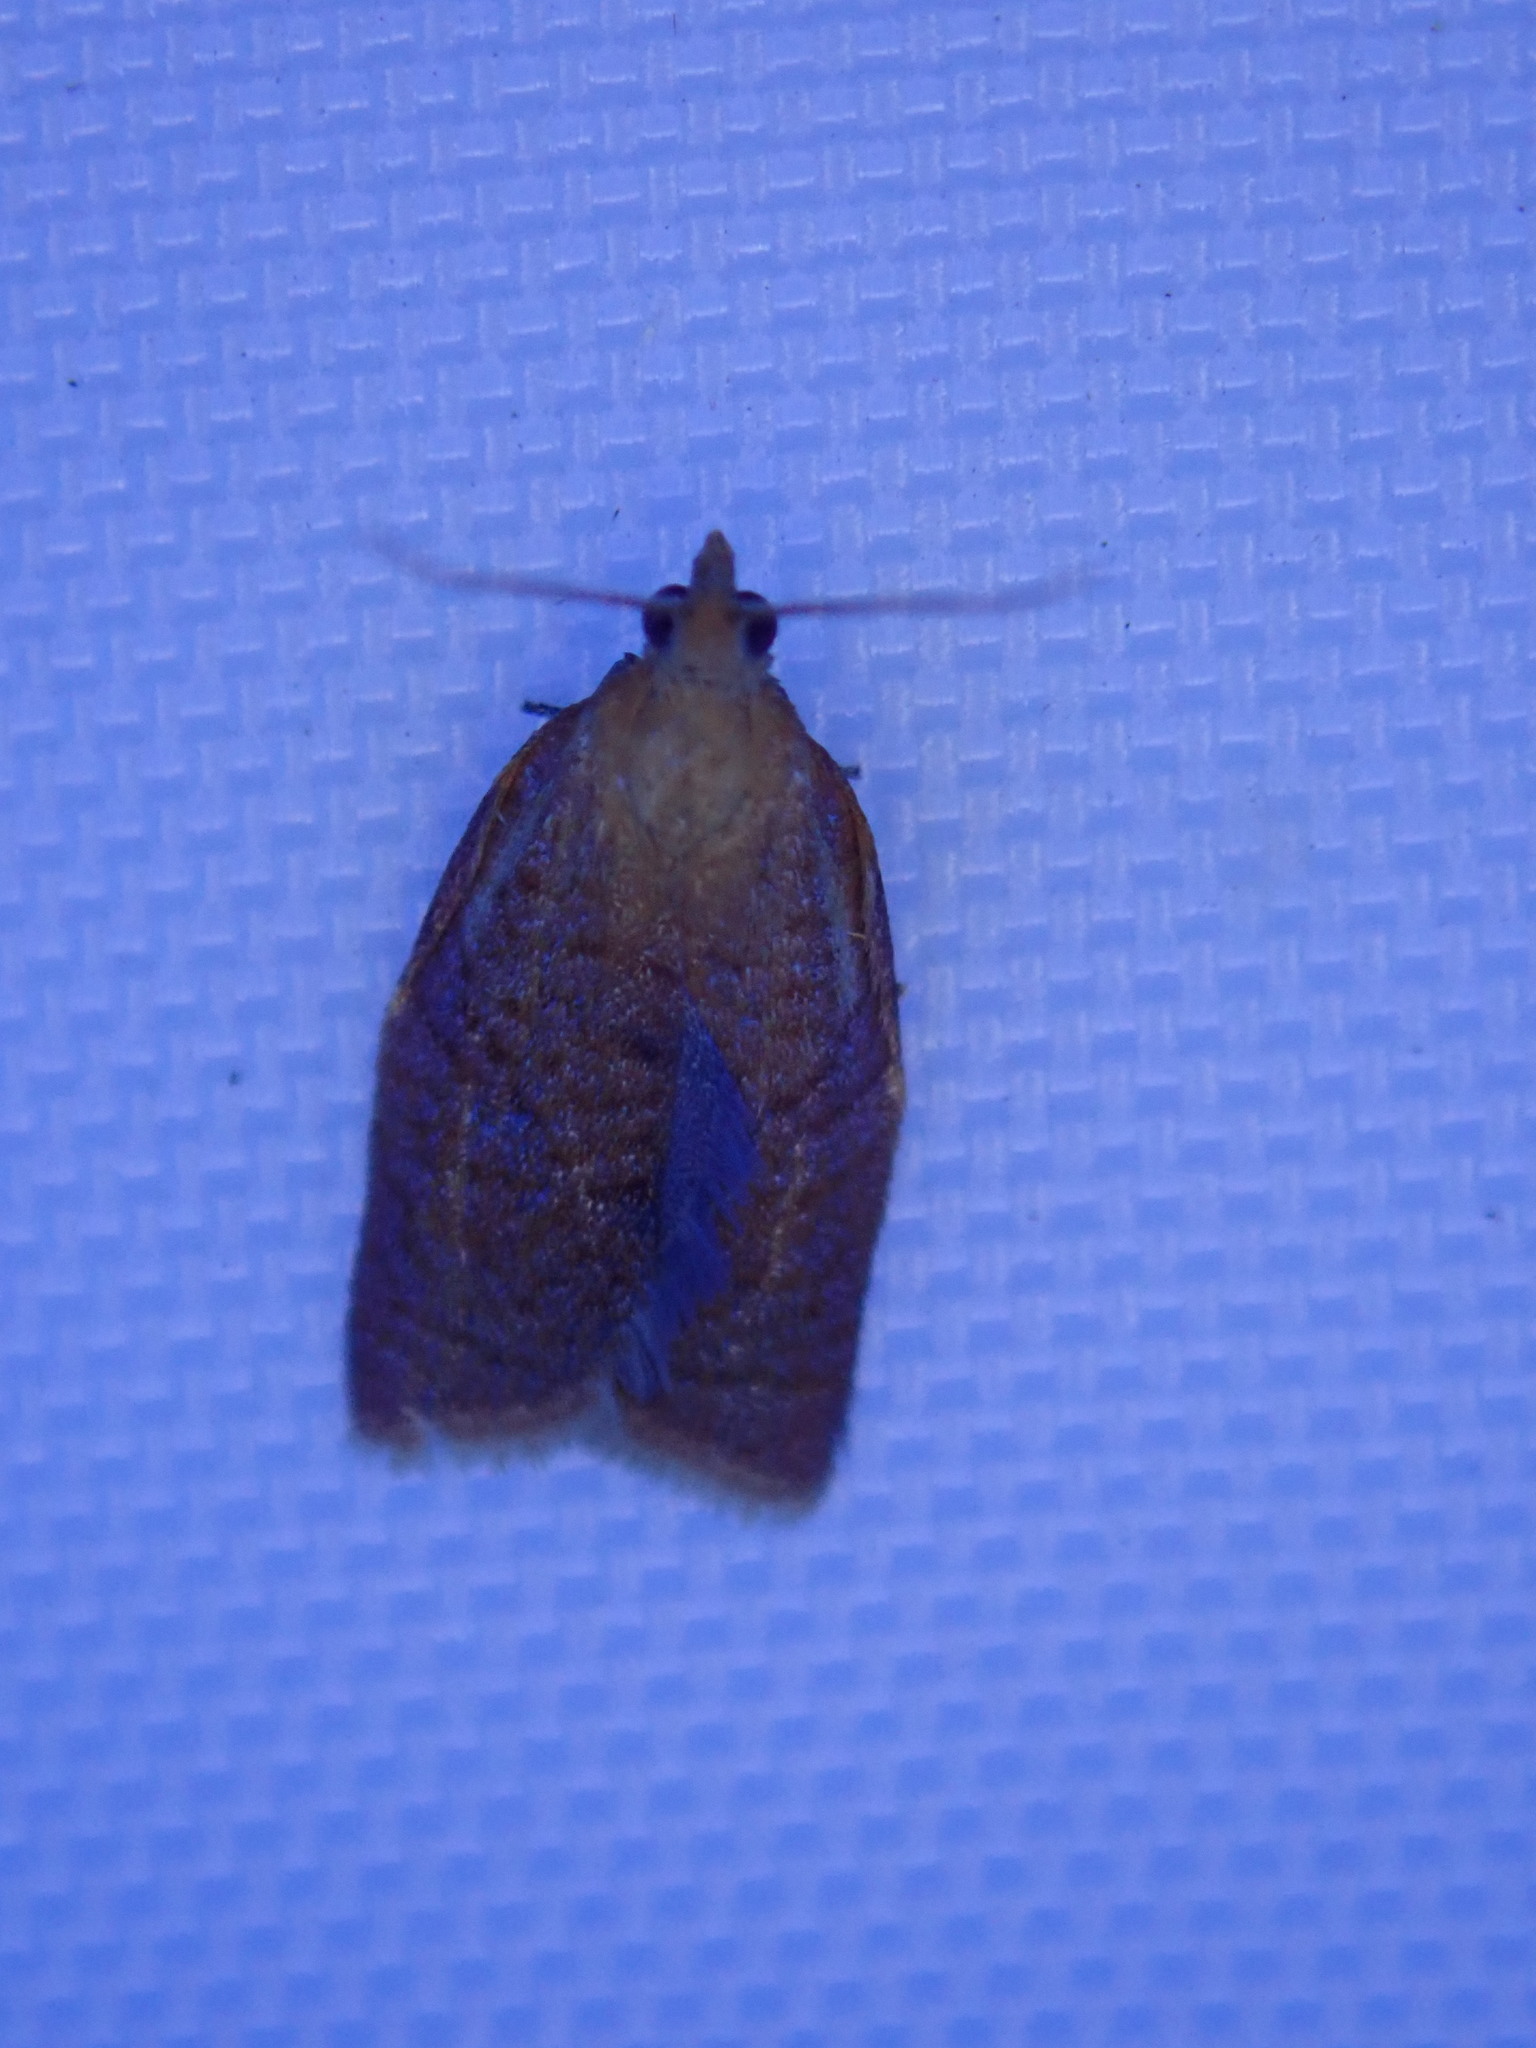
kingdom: Animalia
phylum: Arthropoda
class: Insecta
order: Lepidoptera
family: Tortricidae
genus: Clepsis
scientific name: Clepsis consimilana
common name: Privet tortrix
